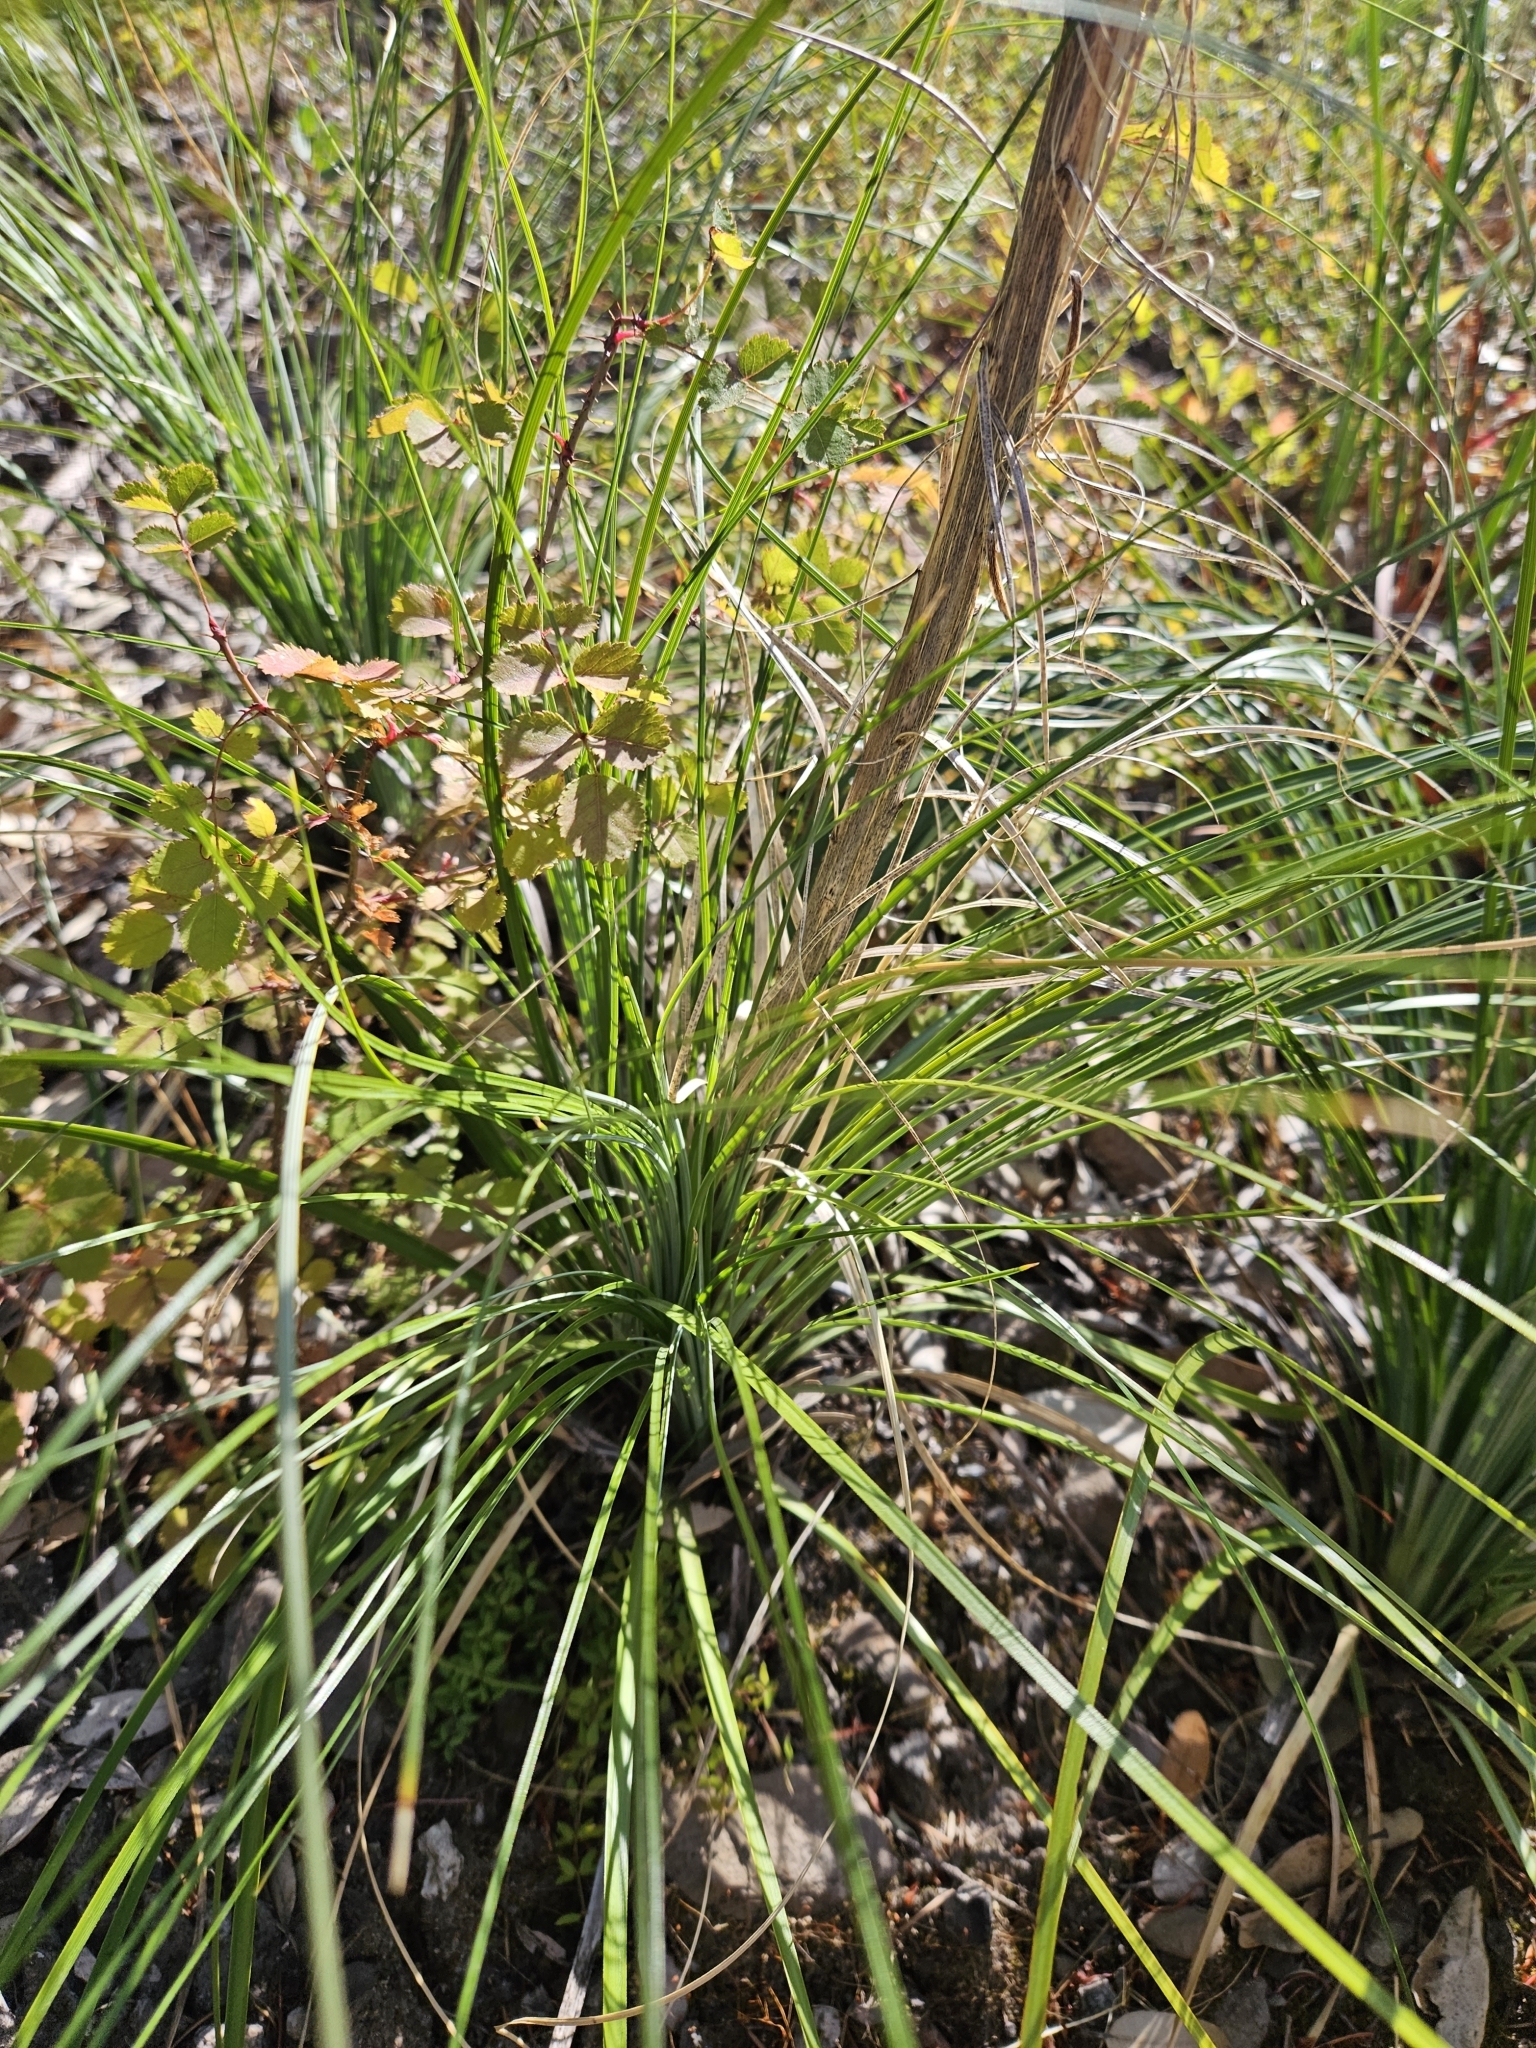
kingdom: Plantae
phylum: Tracheophyta
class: Liliopsida
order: Liliales
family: Melanthiaceae
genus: Xerophyllum
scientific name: Xerophyllum tenax
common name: Bear-grass
